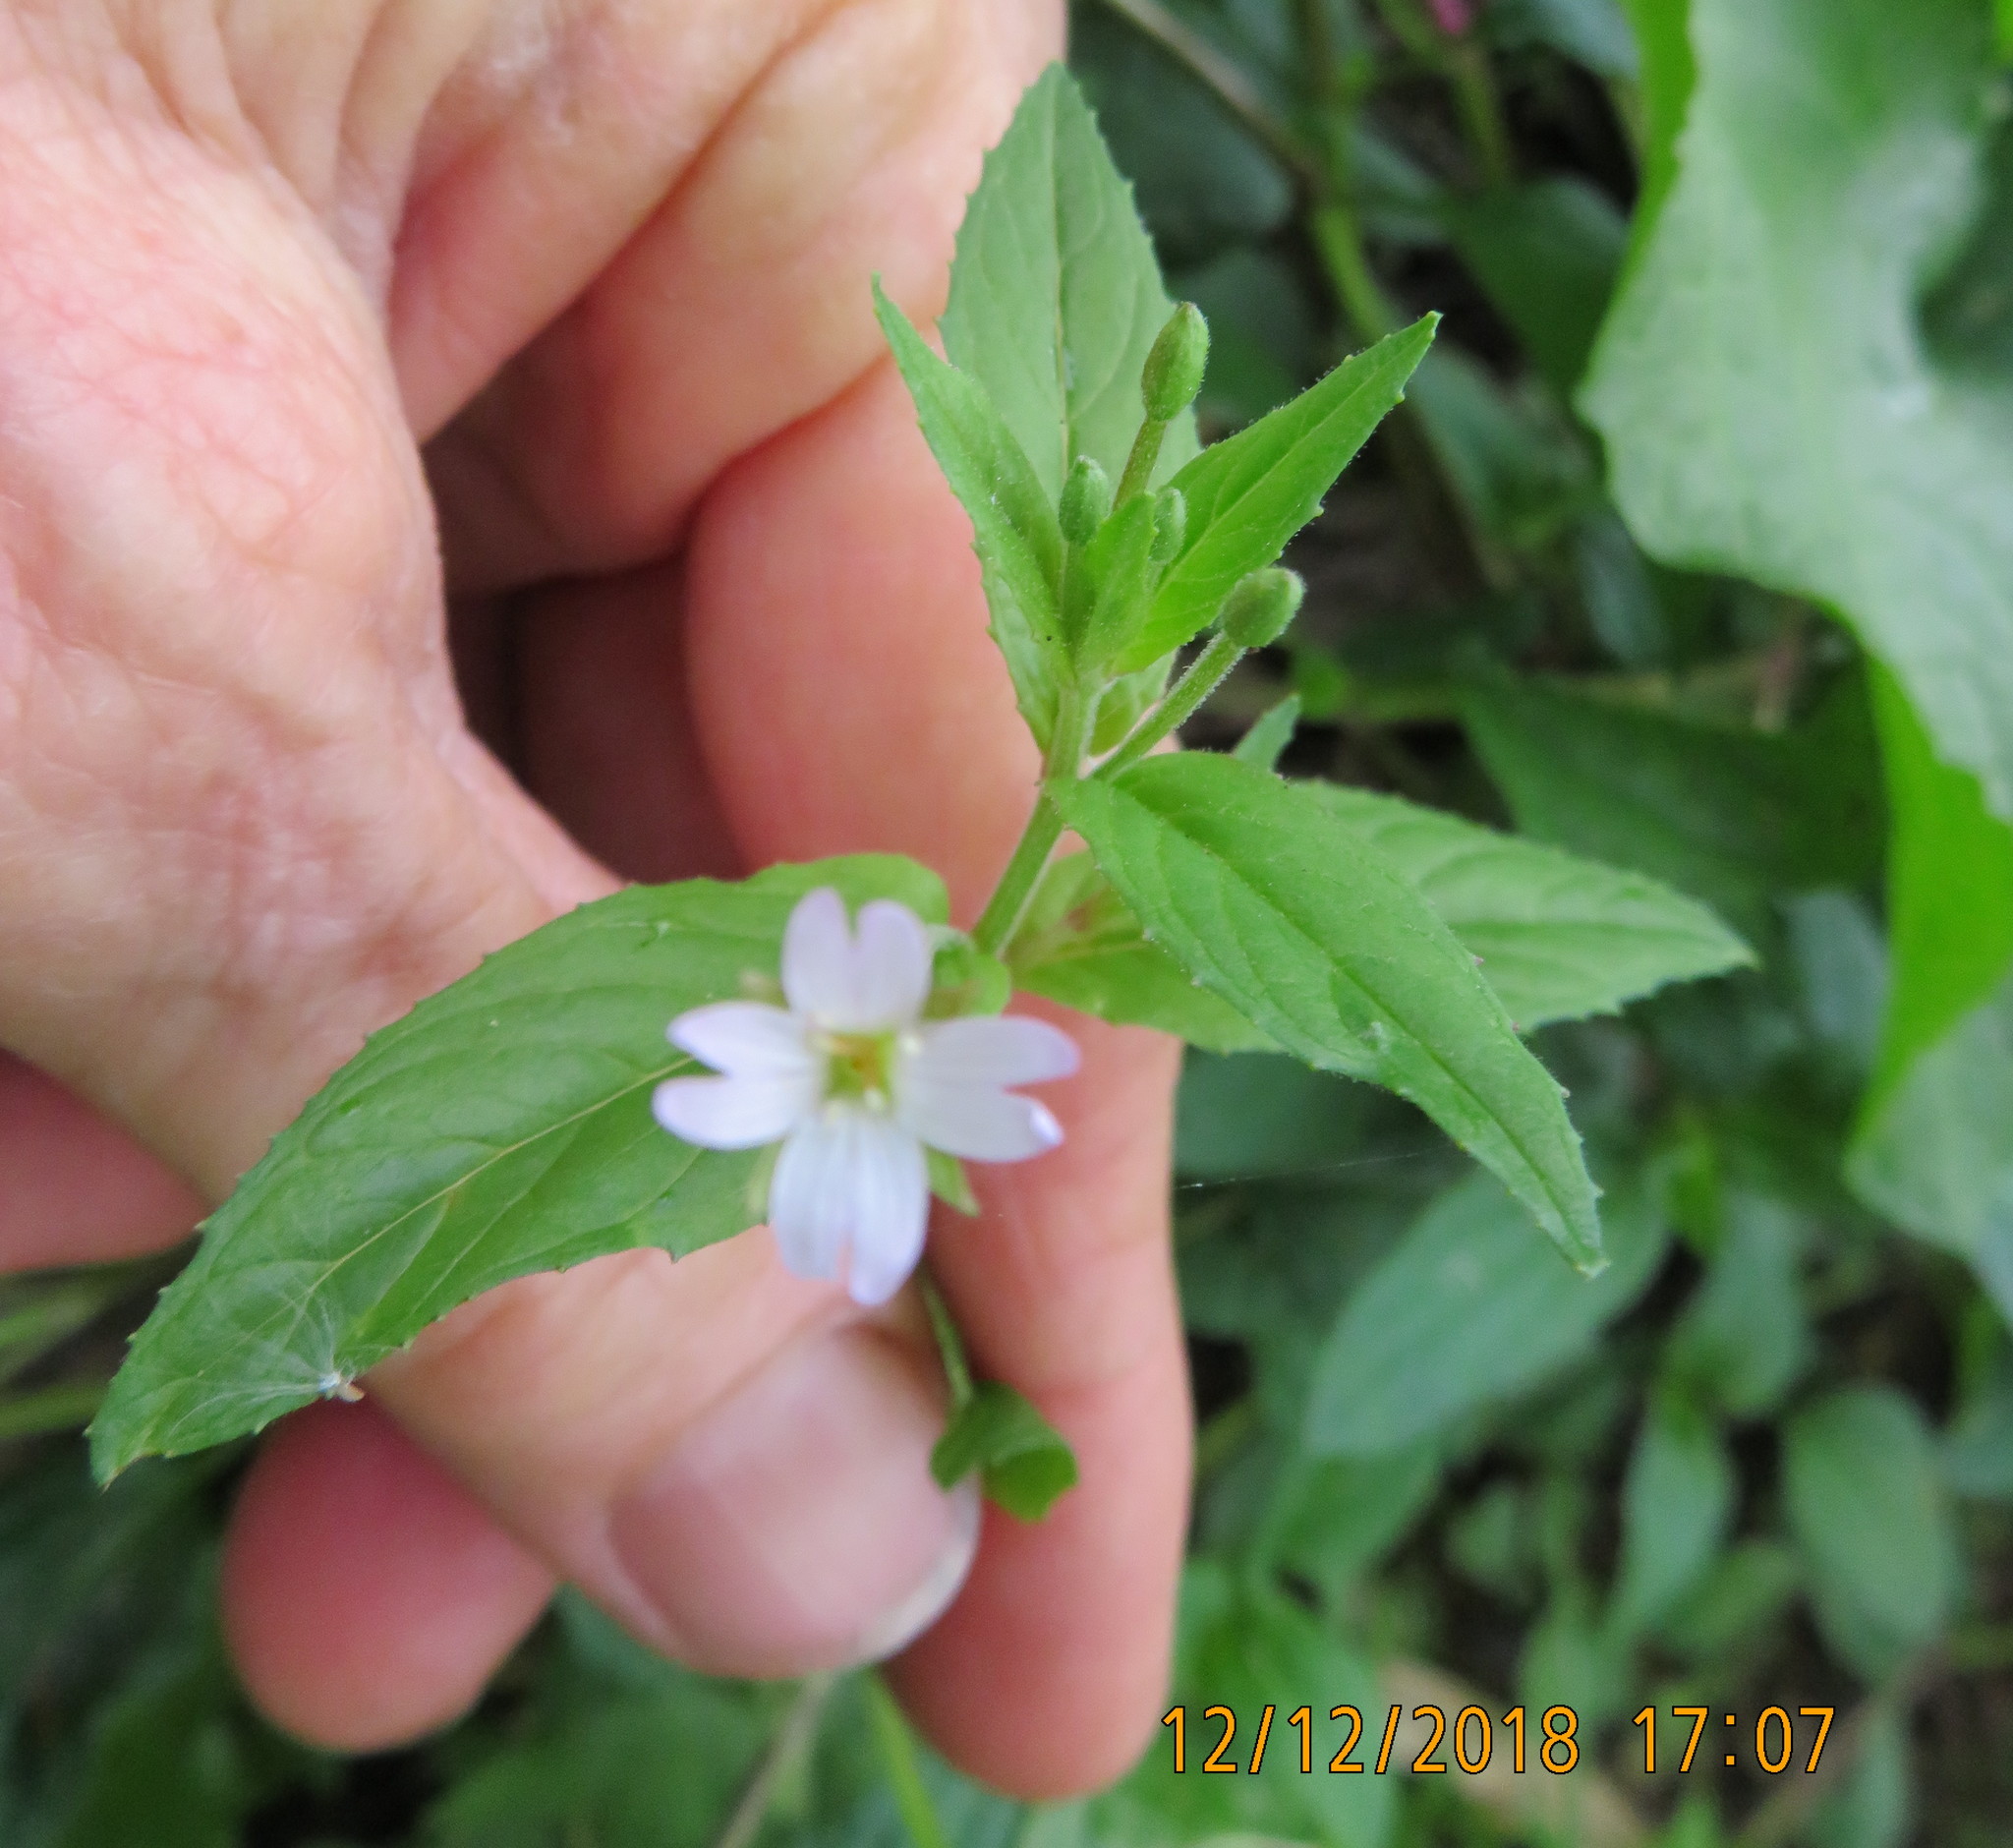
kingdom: Plantae
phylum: Tracheophyta
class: Magnoliopsida
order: Myrtales
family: Onagraceae
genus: Epilobium
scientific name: Epilobium ciliatum
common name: American willowherb
